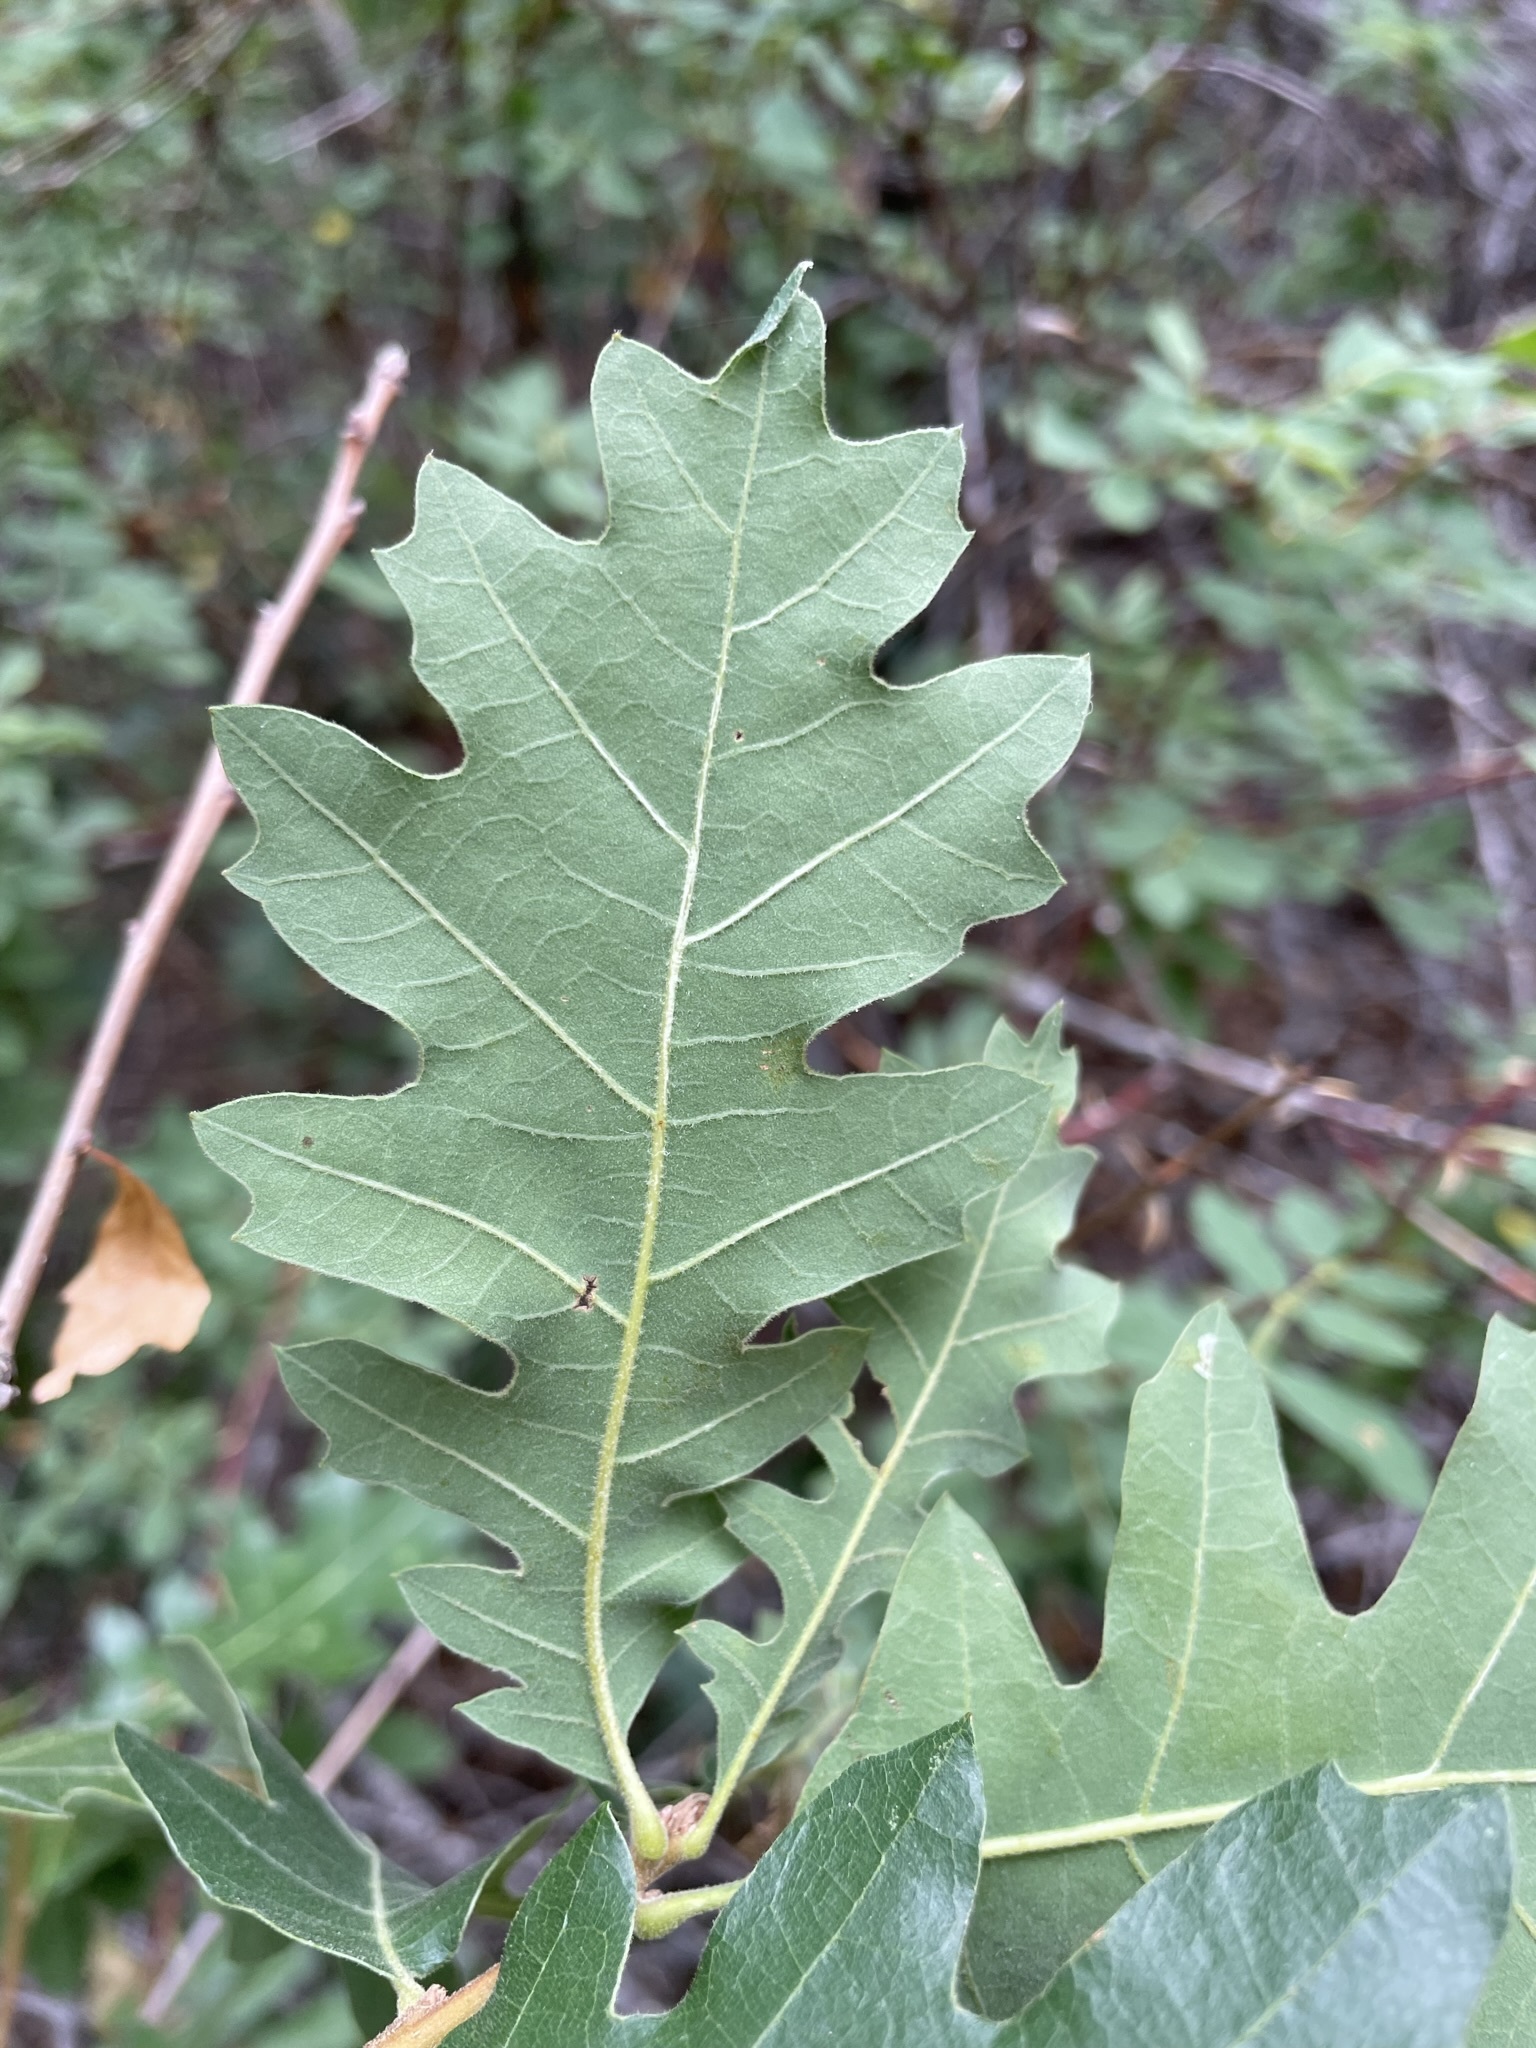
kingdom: Plantae
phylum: Tracheophyta
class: Magnoliopsida
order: Fagales
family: Fagaceae
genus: Quercus
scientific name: Quercus gambelii
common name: Gambel oak
